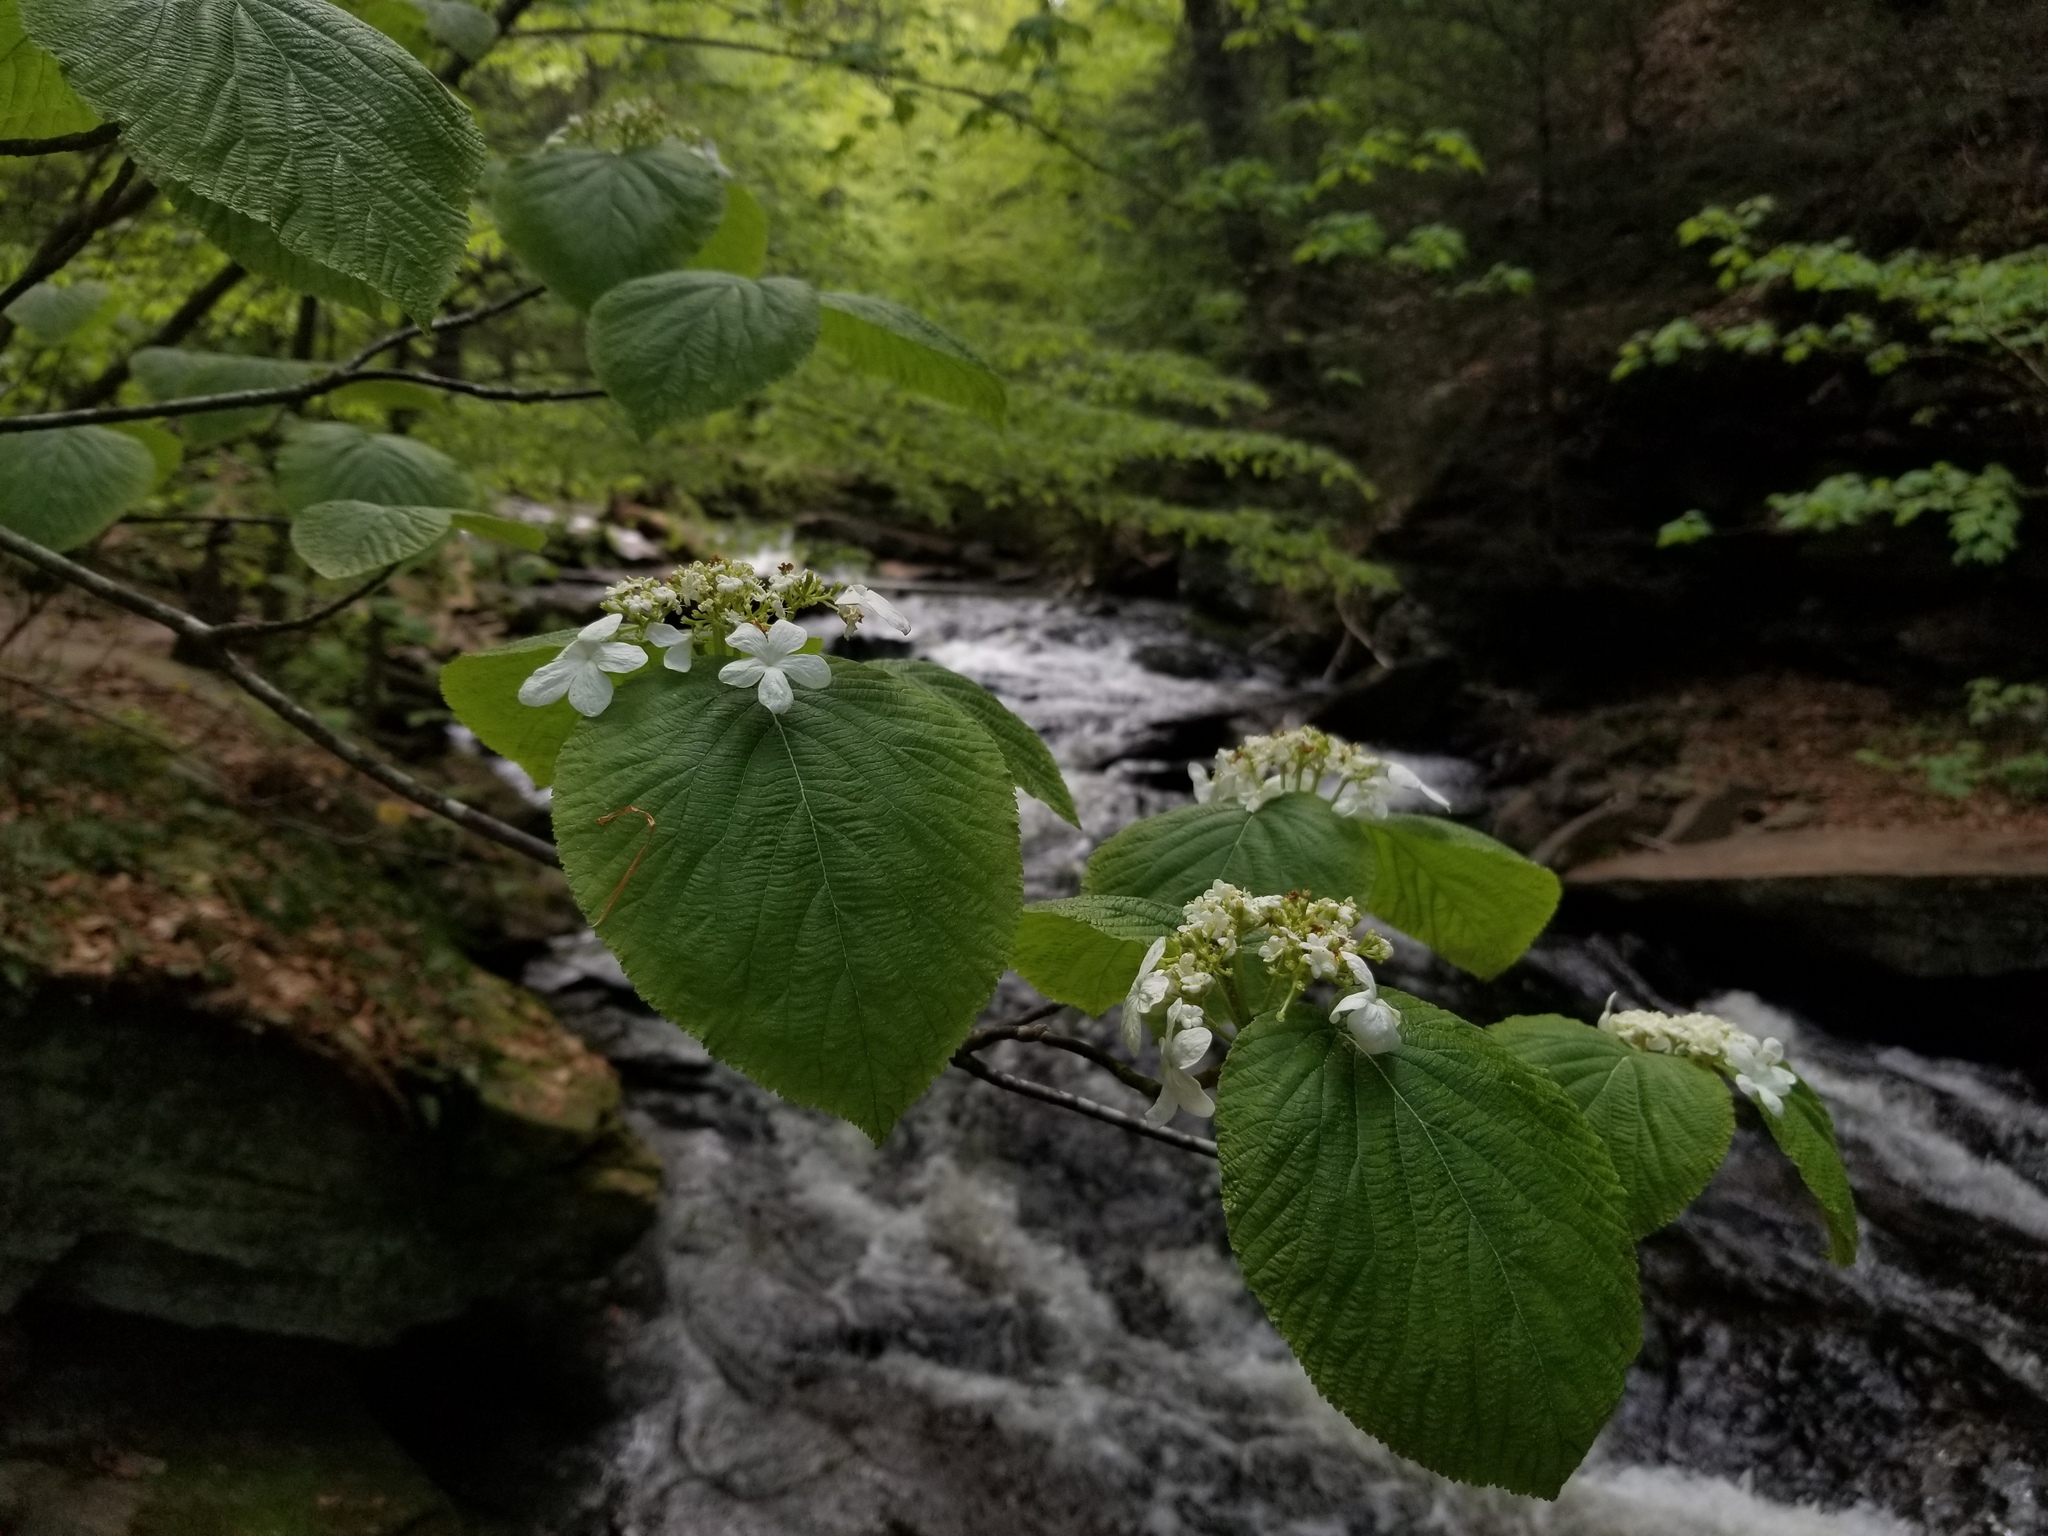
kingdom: Plantae
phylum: Tracheophyta
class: Magnoliopsida
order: Dipsacales
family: Viburnaceae
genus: Viburnum
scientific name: Viburnum lantanoides
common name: Hobblebush
